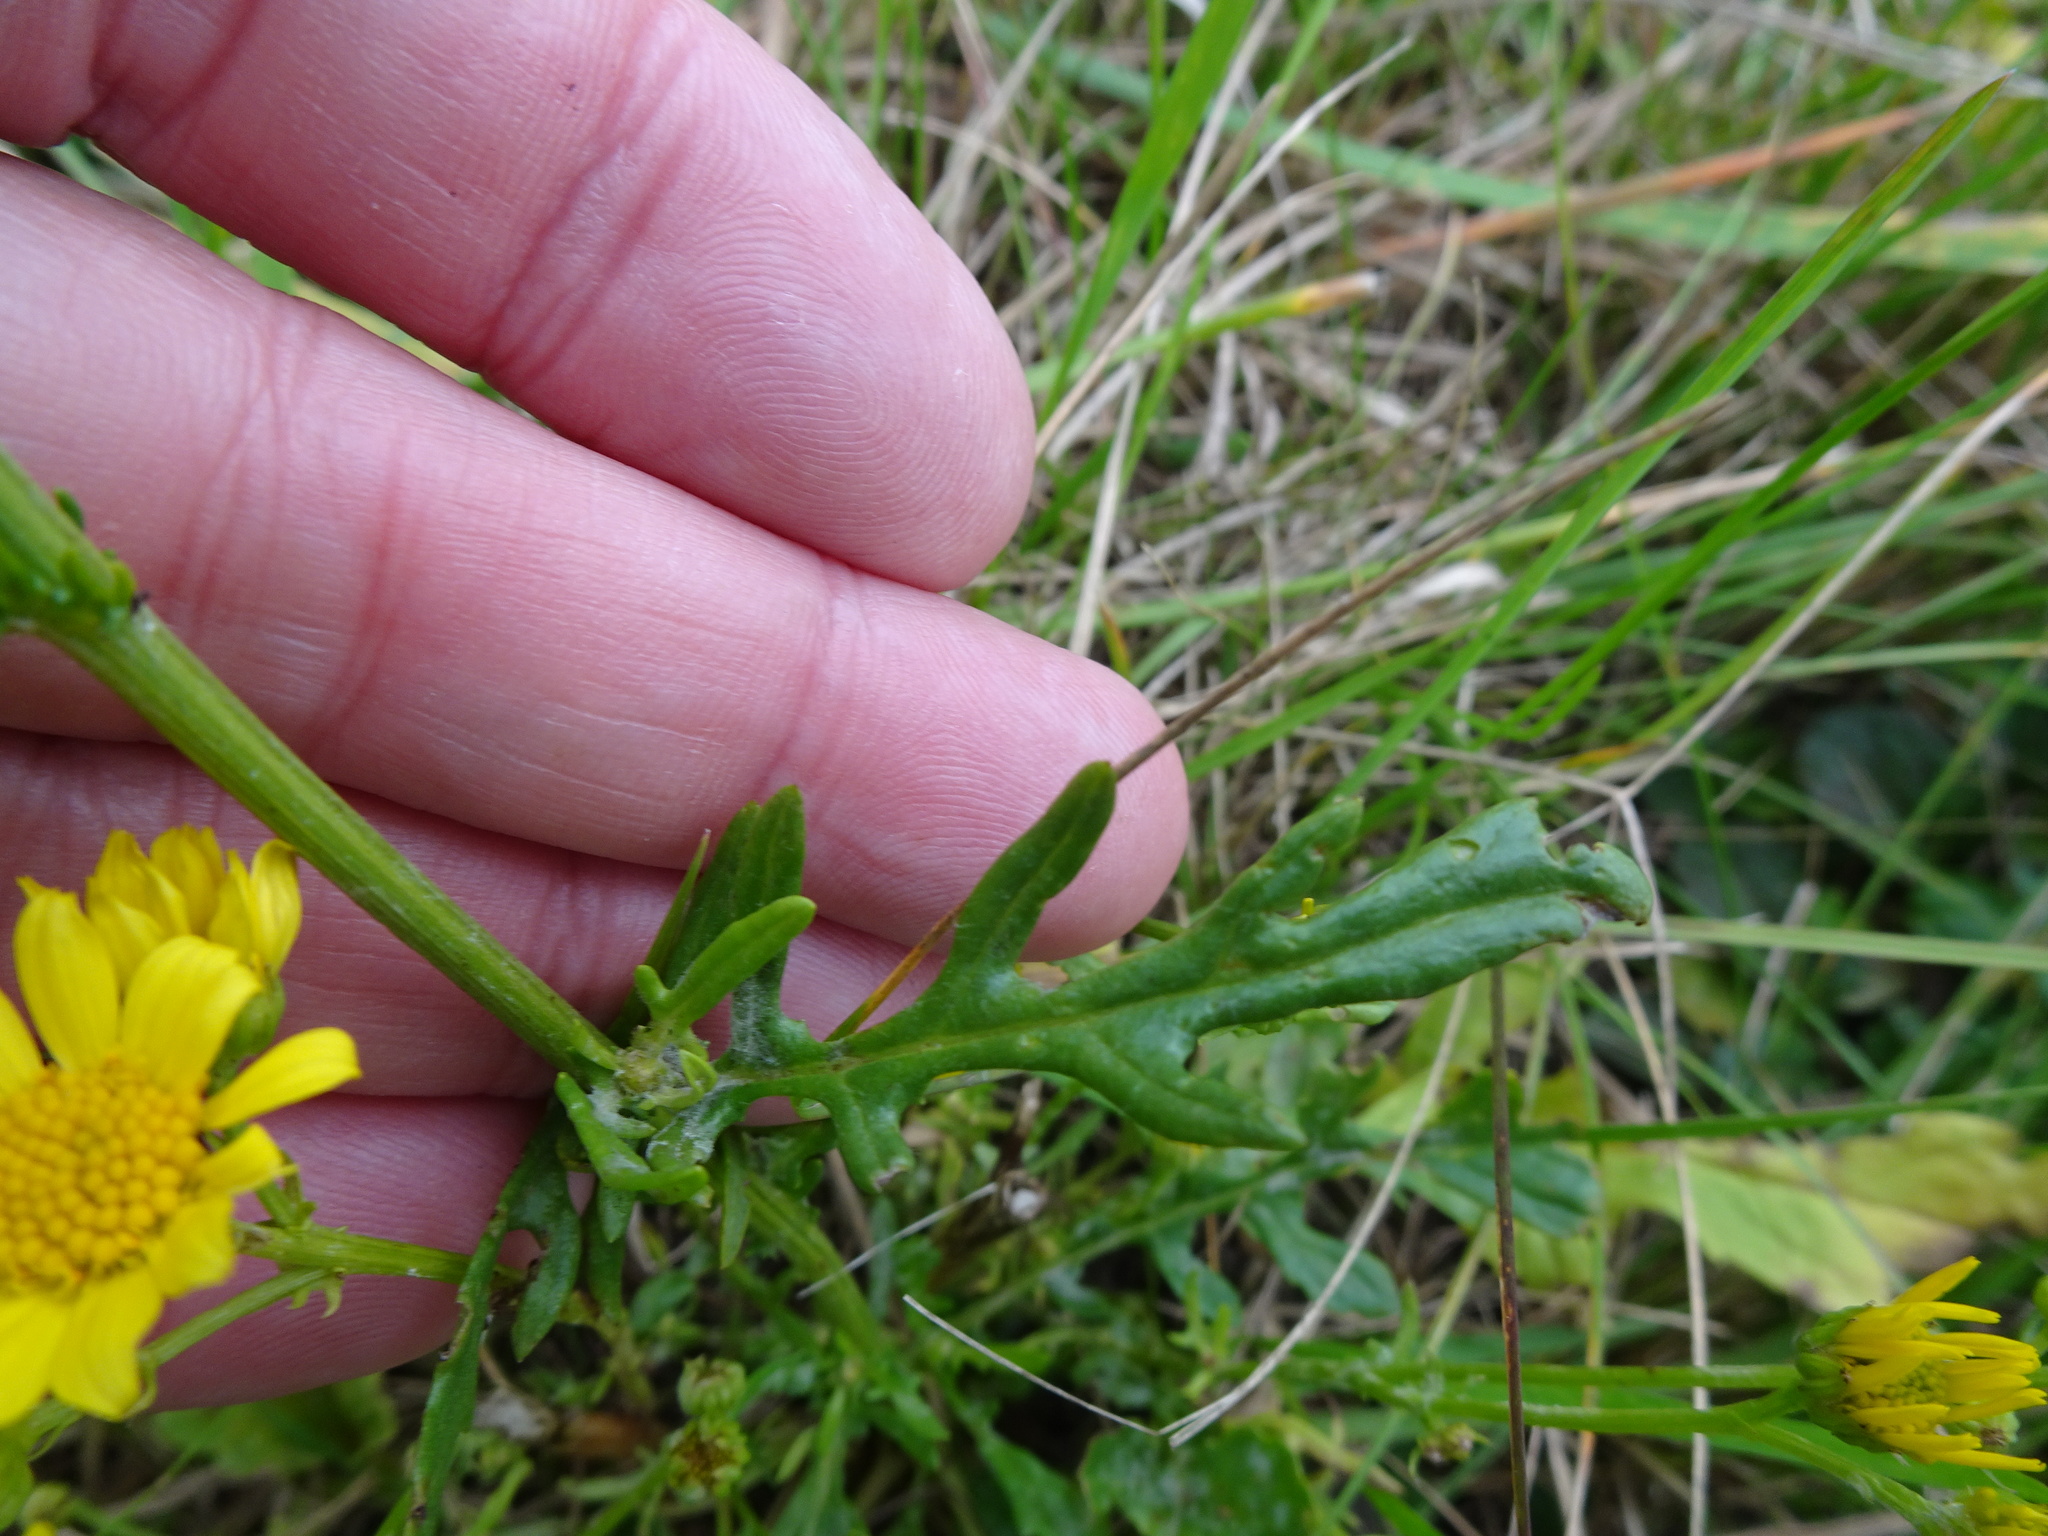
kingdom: Plantae
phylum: Tracheophyta
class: Magnoliopsida
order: Asterales
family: Asteraceae
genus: Jacobaea
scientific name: Jacobaea aquatica
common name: Water ragwort
